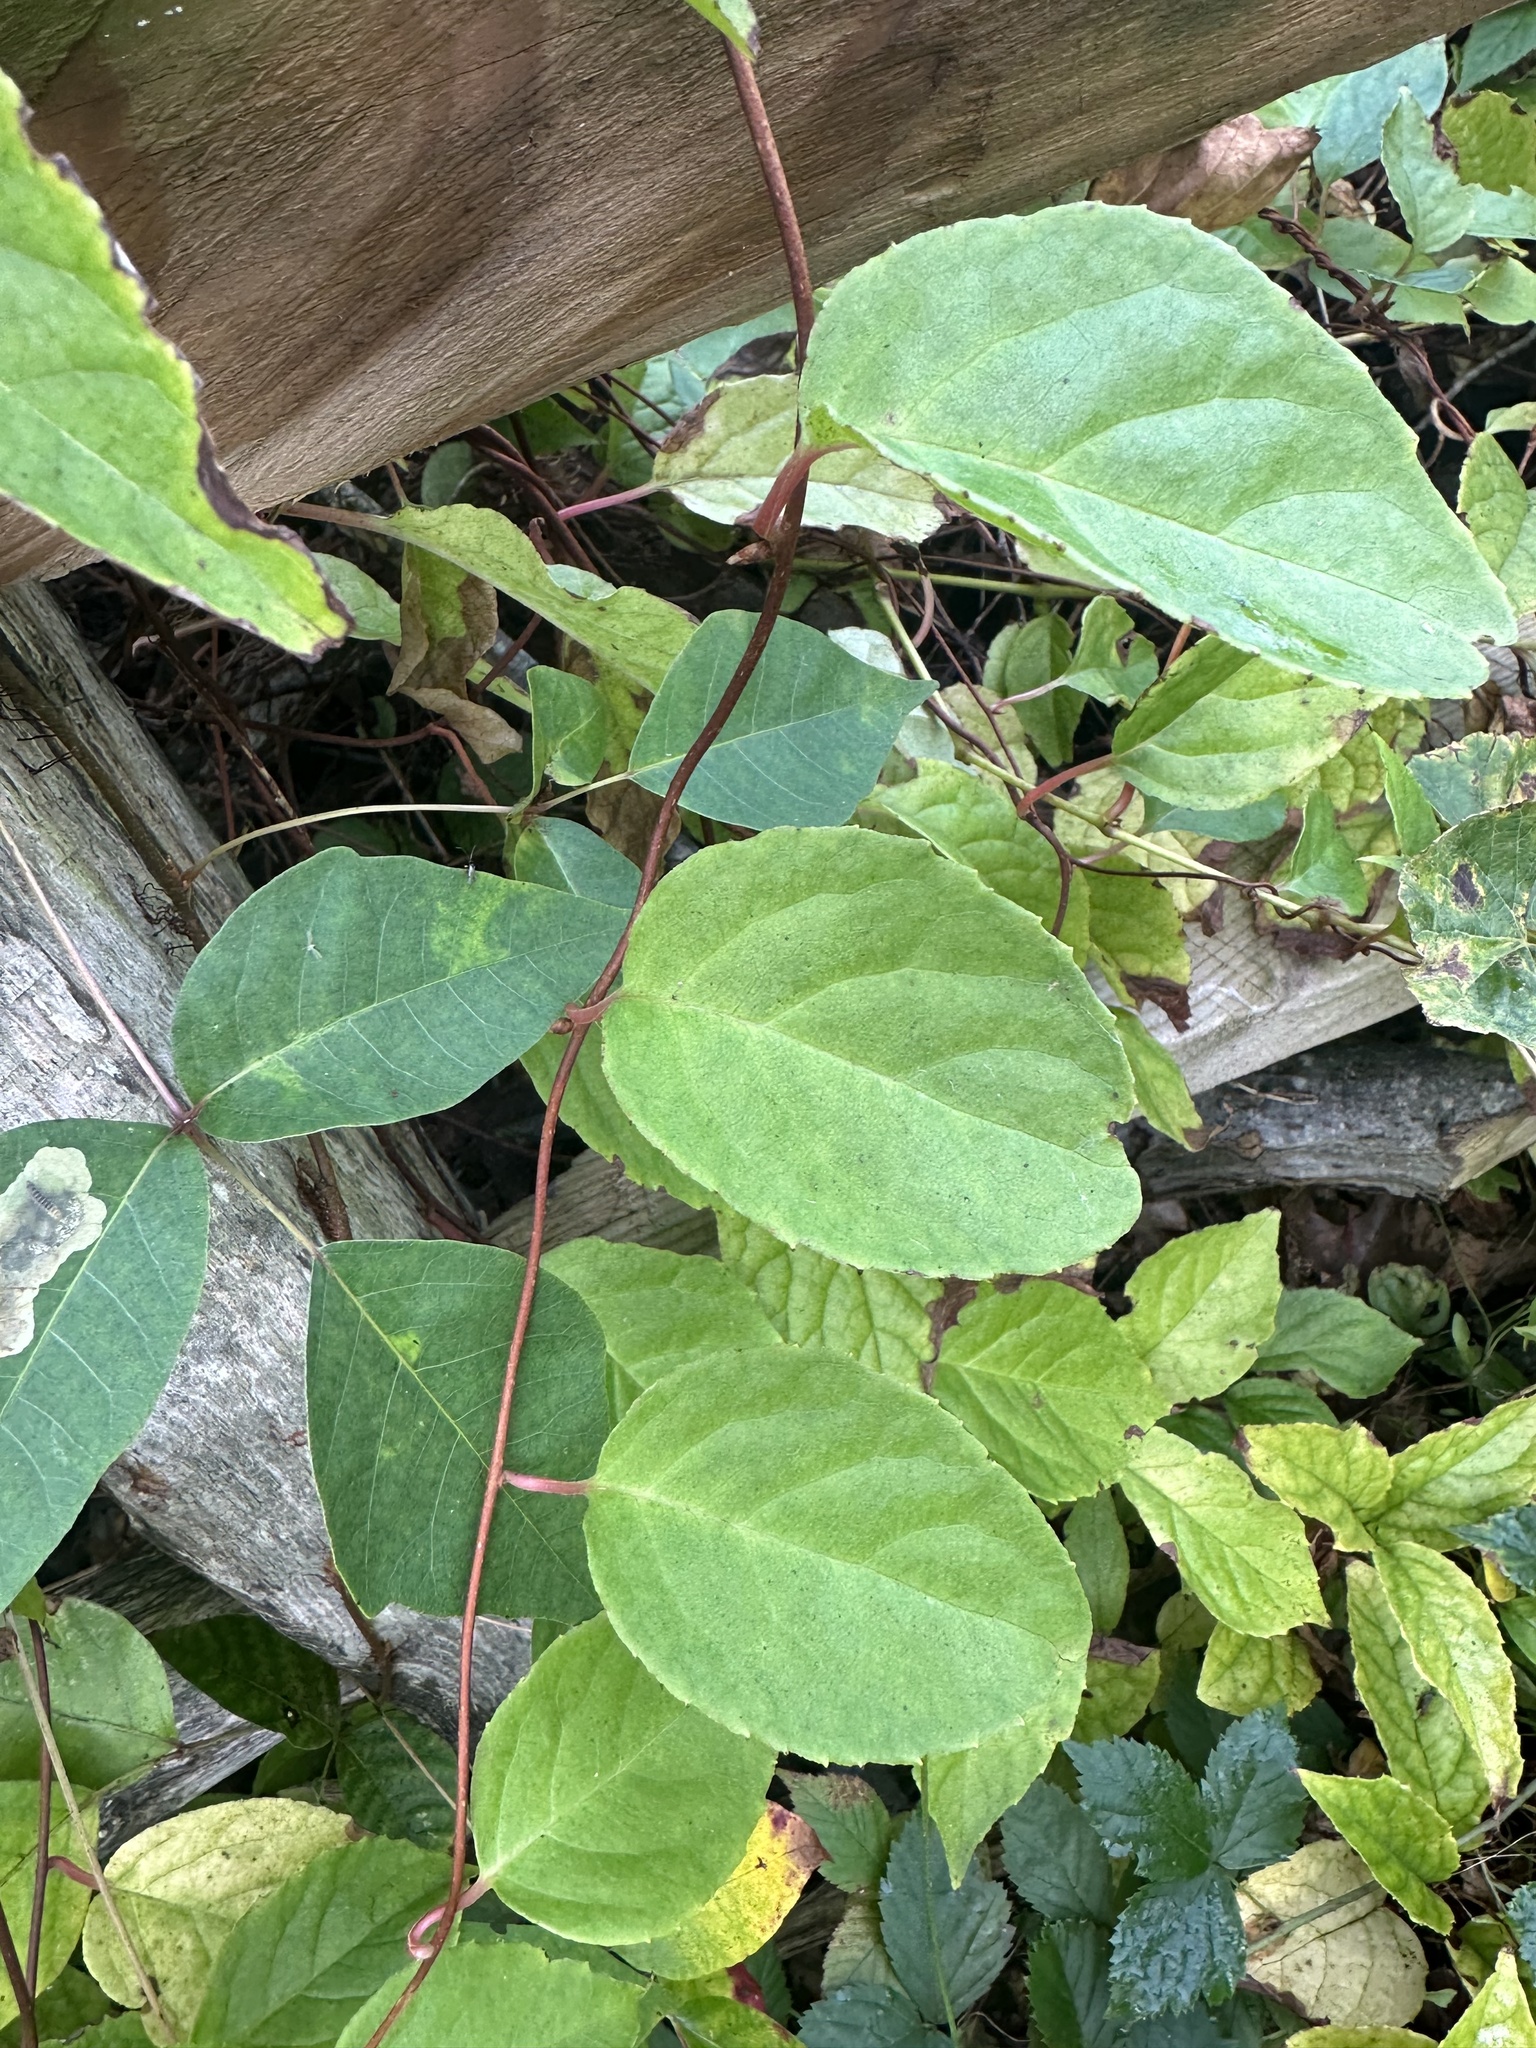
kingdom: Plantae
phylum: Tracheophyta
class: Magnoliopsida
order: Ericales
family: Actinidiaceae
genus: Actinidia
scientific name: Actinidia arguta
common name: Tara vine
